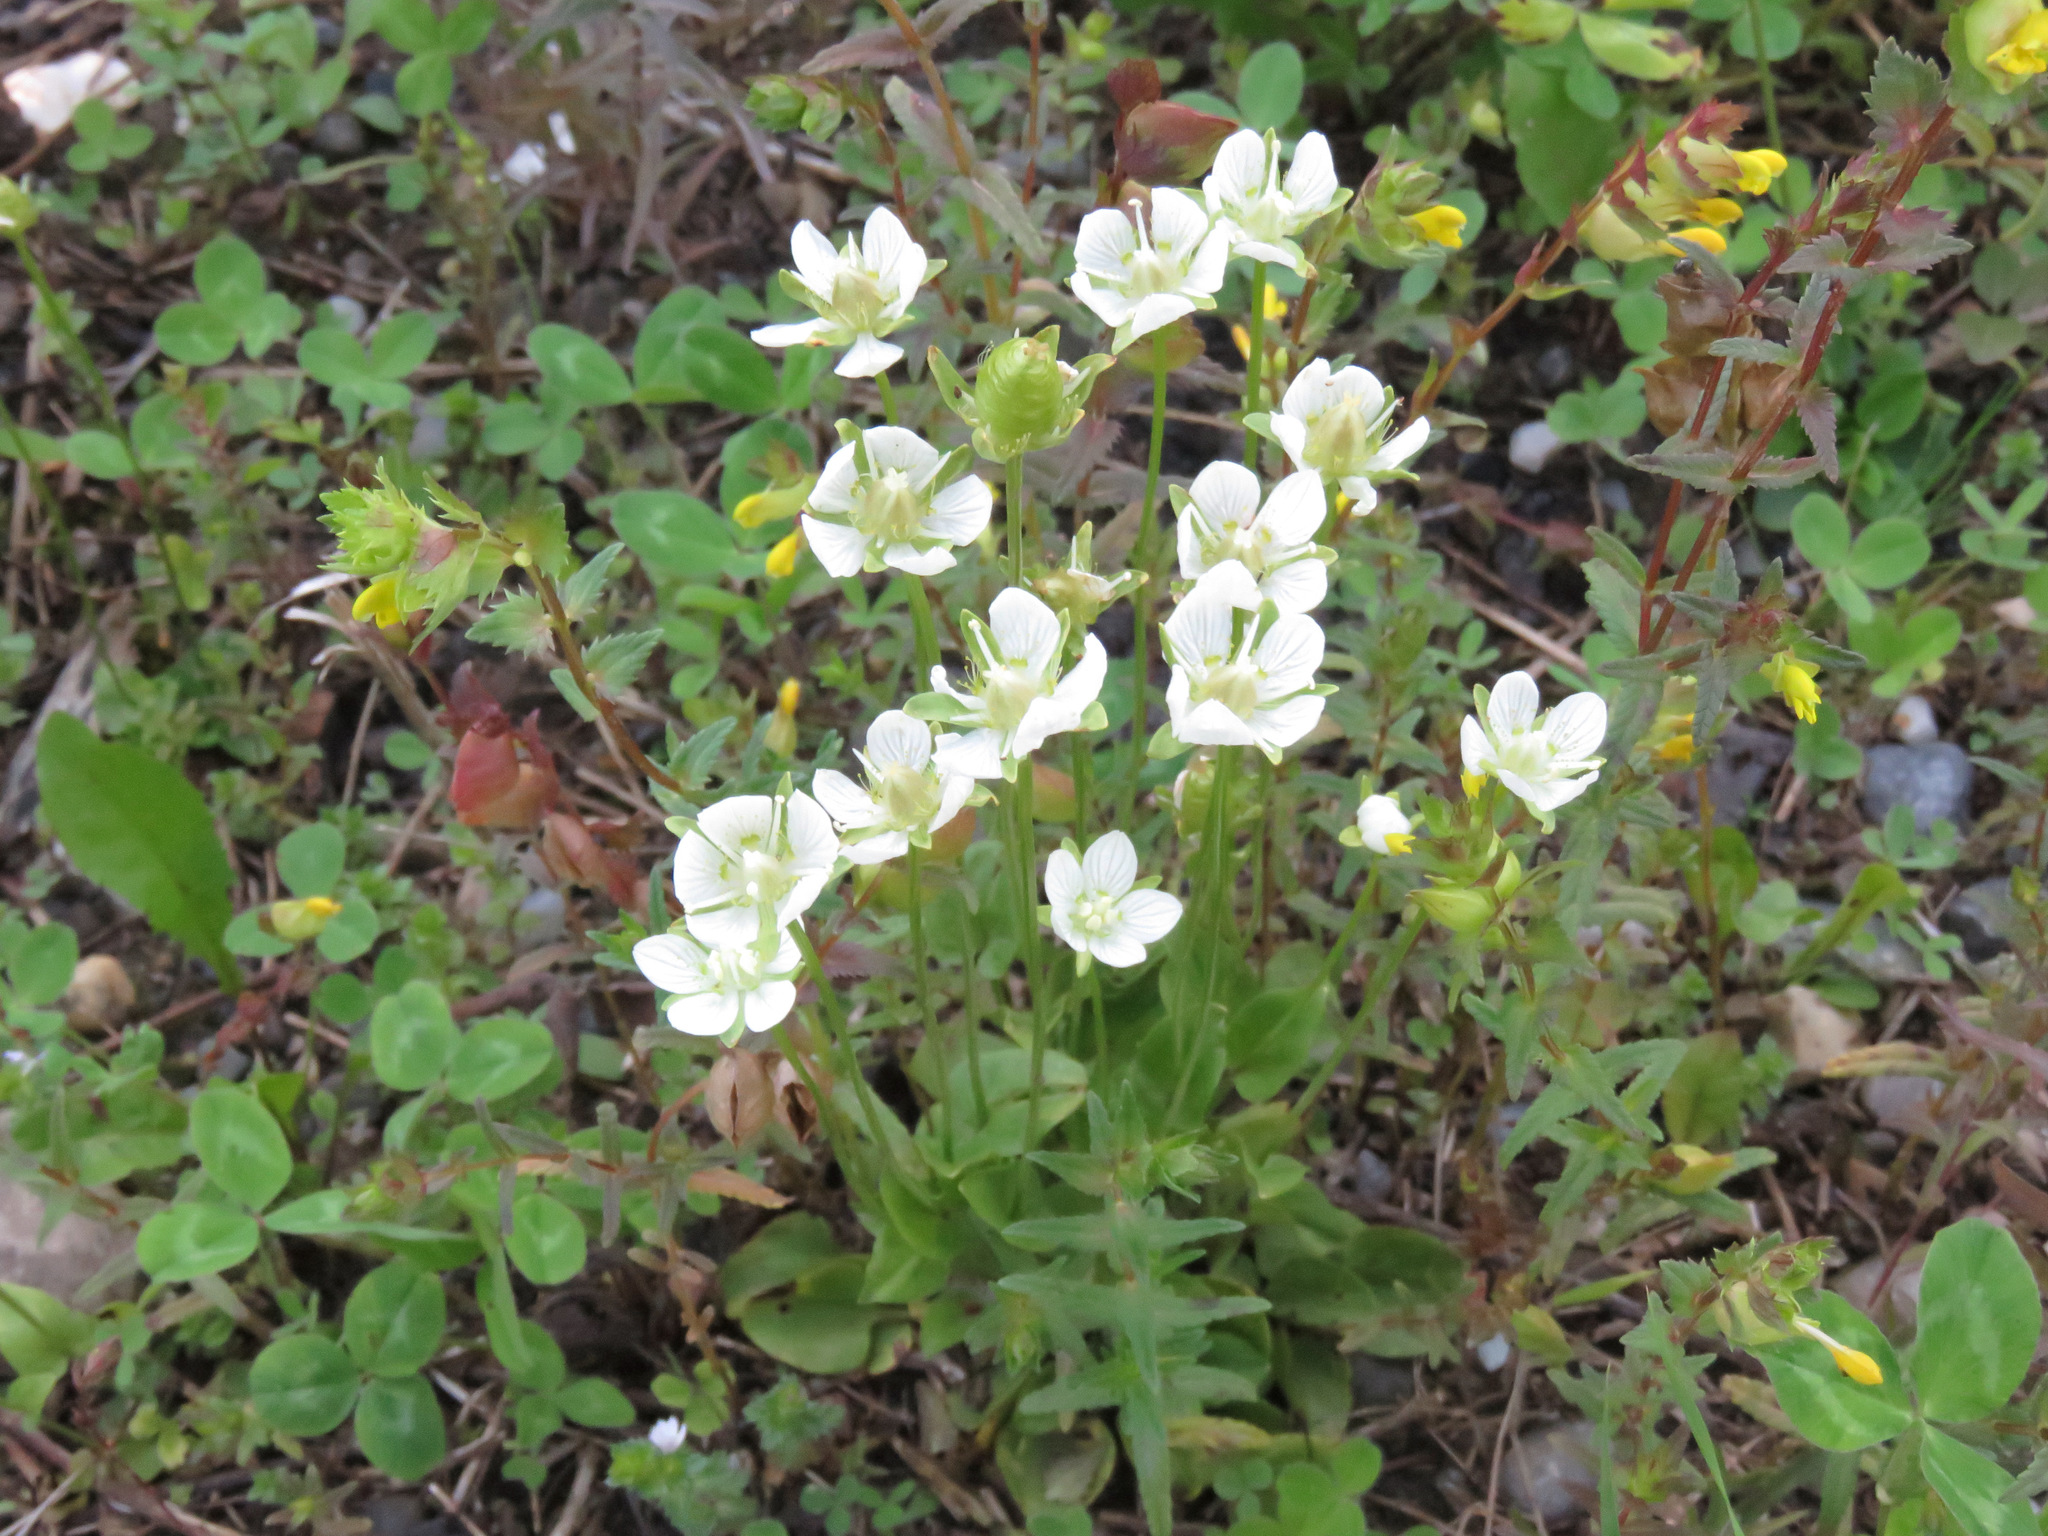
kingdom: Plantae
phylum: Tracheophyta
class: Magnoliopsida
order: Celastrales
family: Parnassiaceae
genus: Parnassia
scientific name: Parnassia palustris
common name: Grass-of-parnassus
